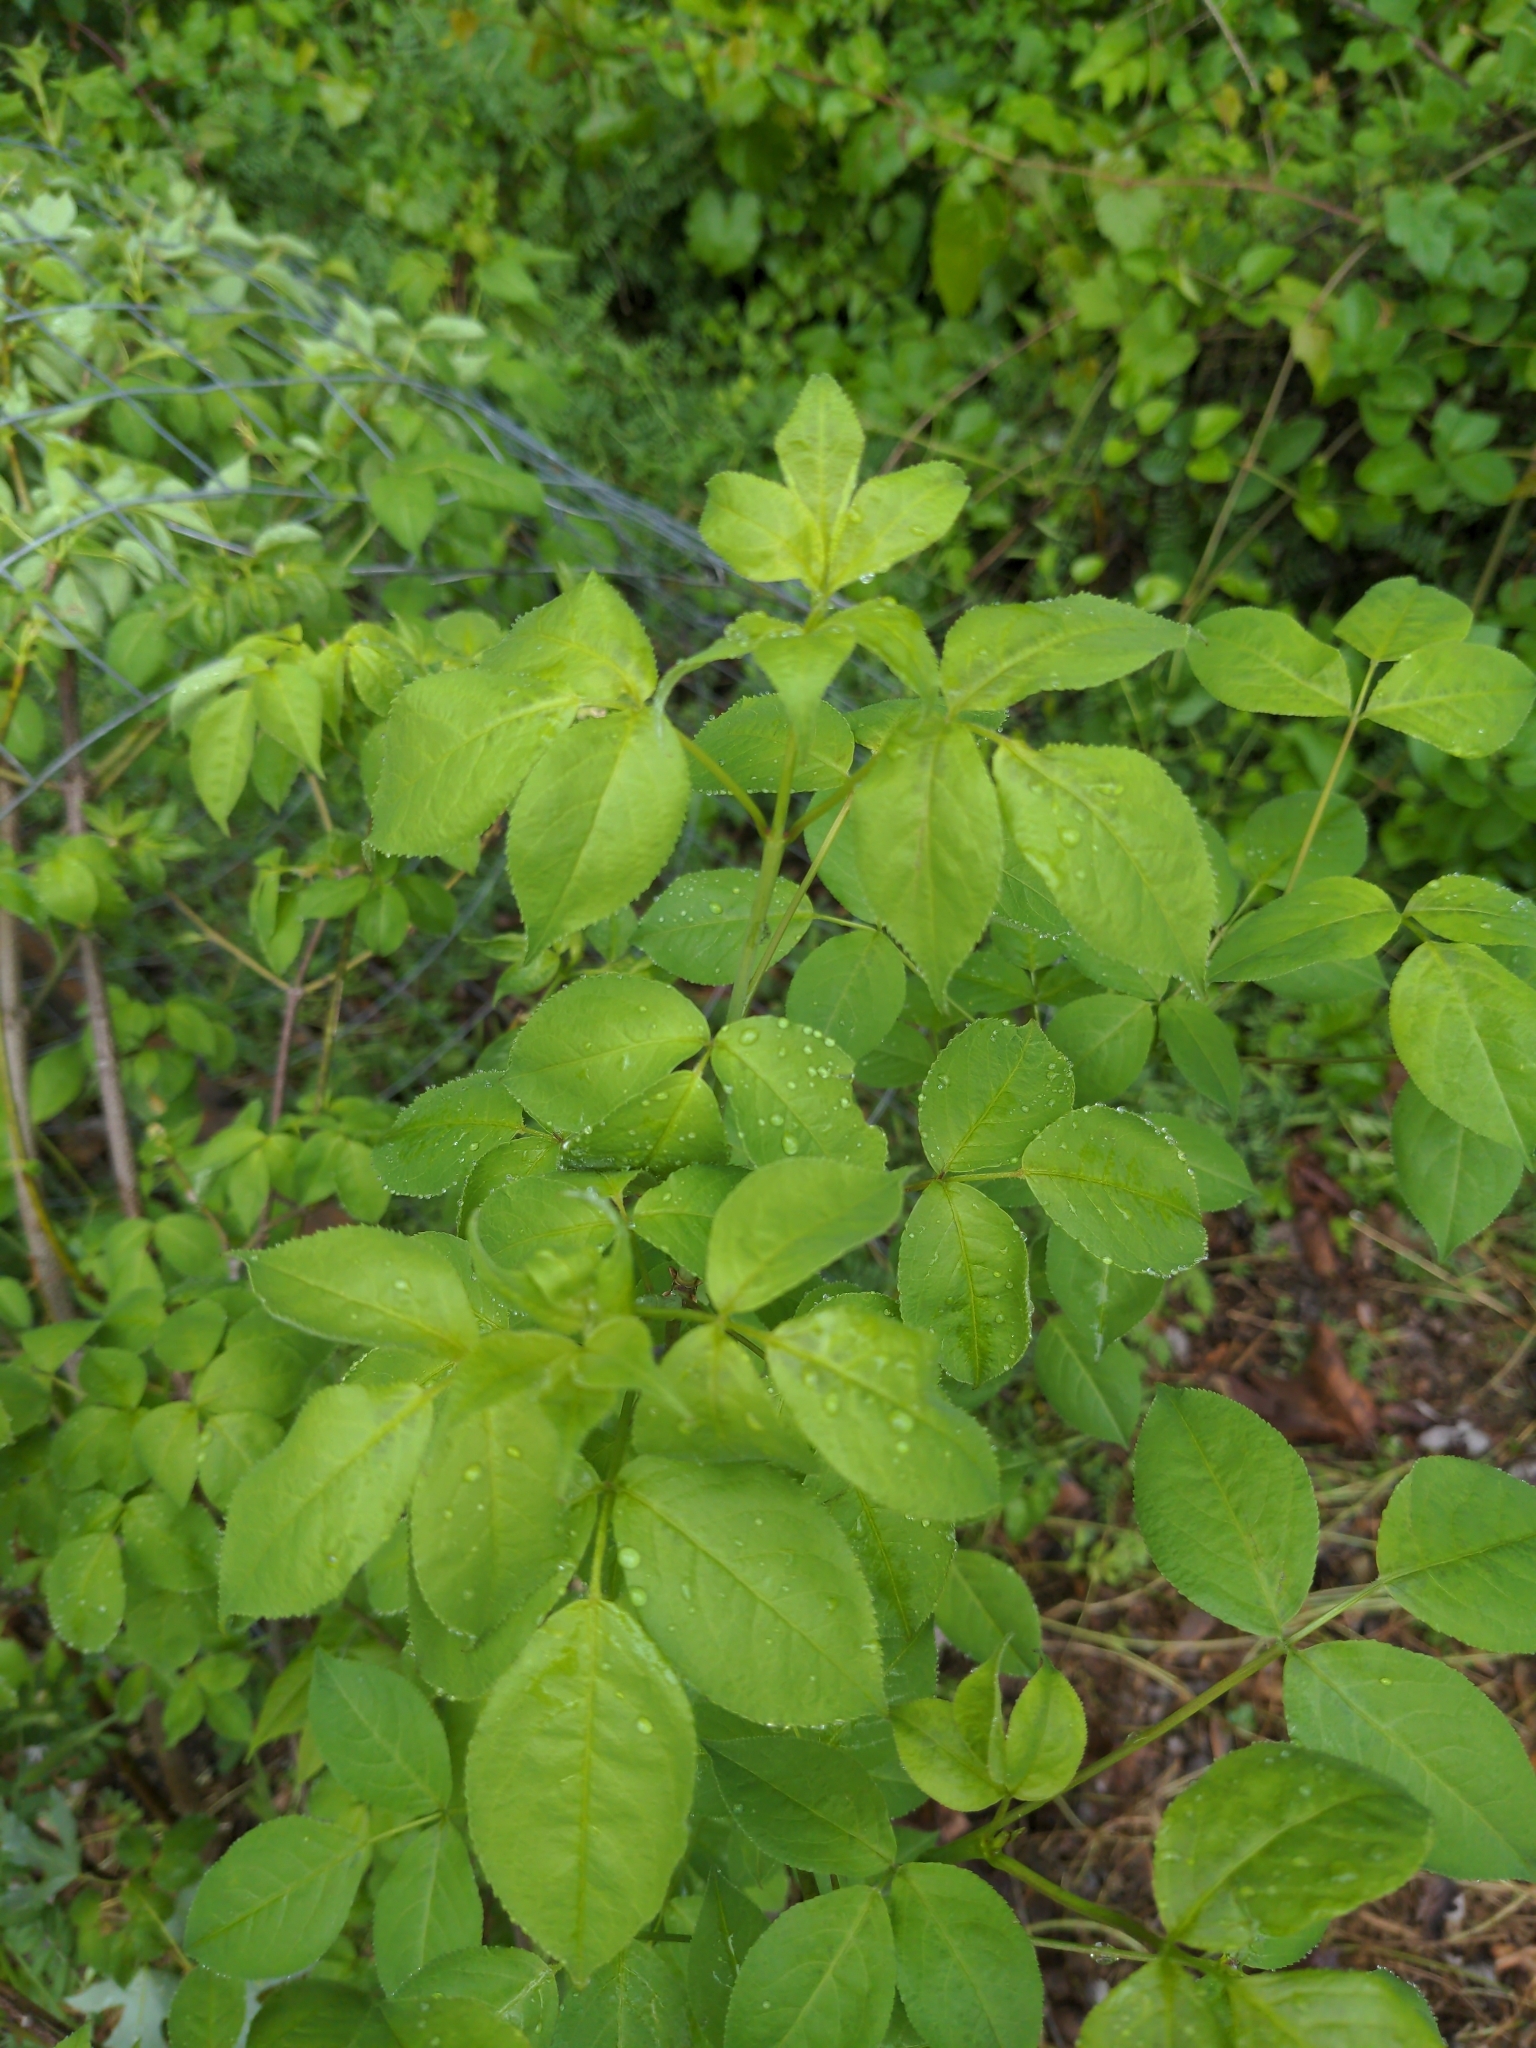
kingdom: Plantae
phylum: Tracheophyta
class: Magnoliopsida
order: Crossosomatales
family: Staphyleaceae
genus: Staphylea
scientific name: Staphylea trifolia
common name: American bladdernut
